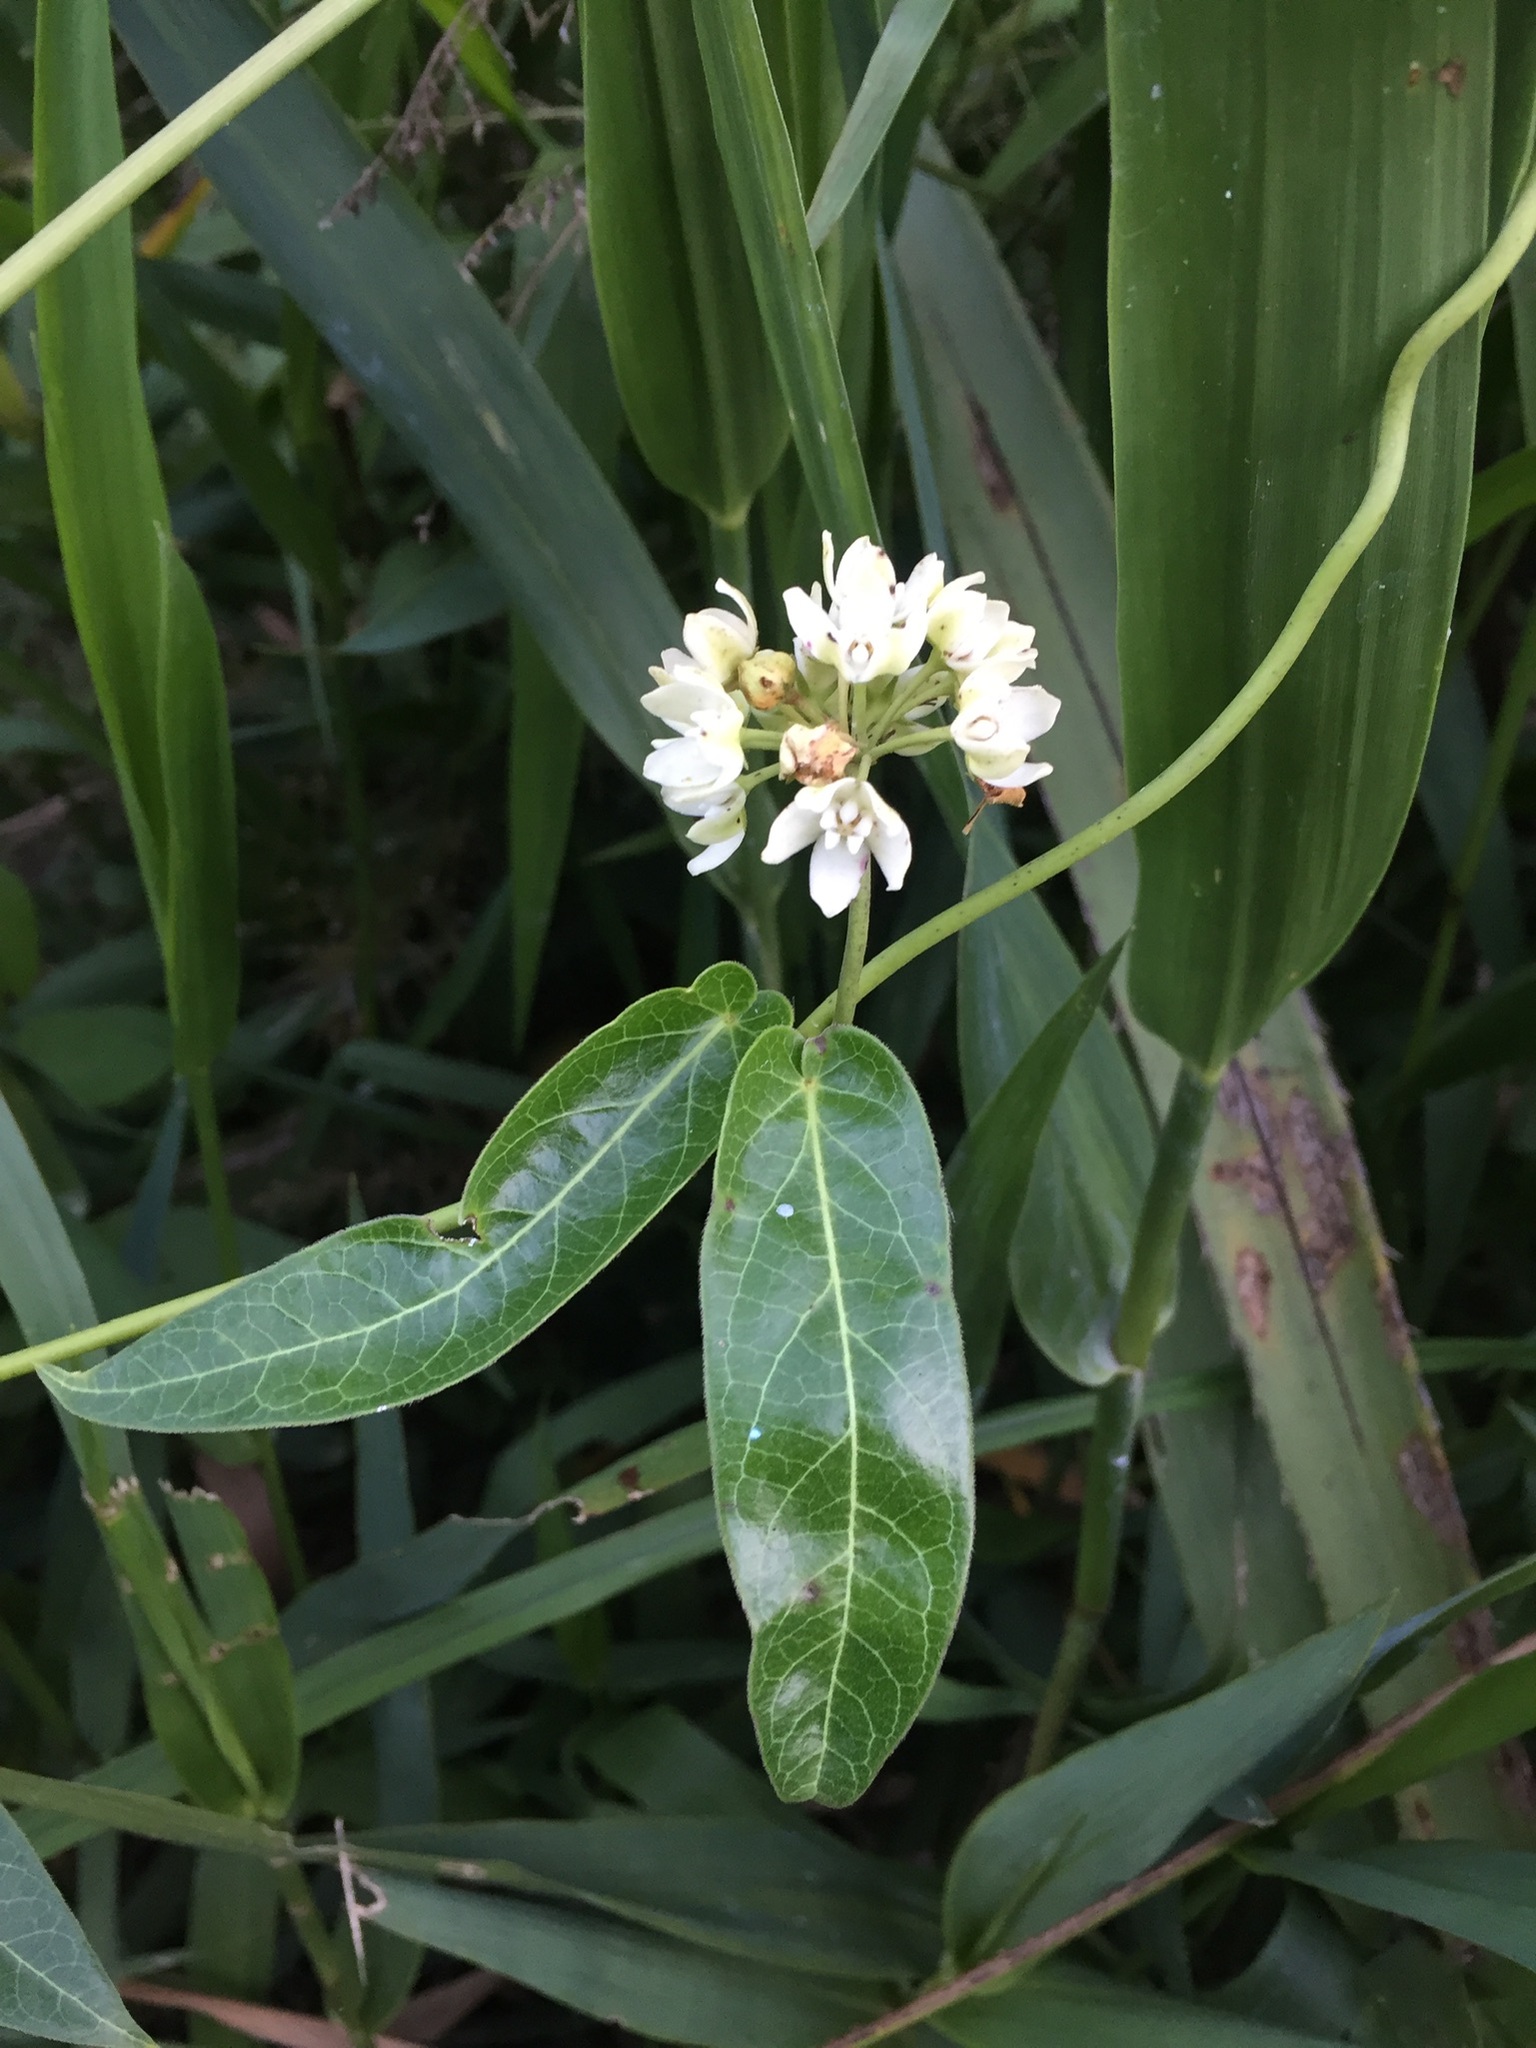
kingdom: Plantae
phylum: Tracheophyta
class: Magnoliopsida
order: Gentianales
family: Apocynaceae
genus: Funastrum
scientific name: Funastrum clausum
